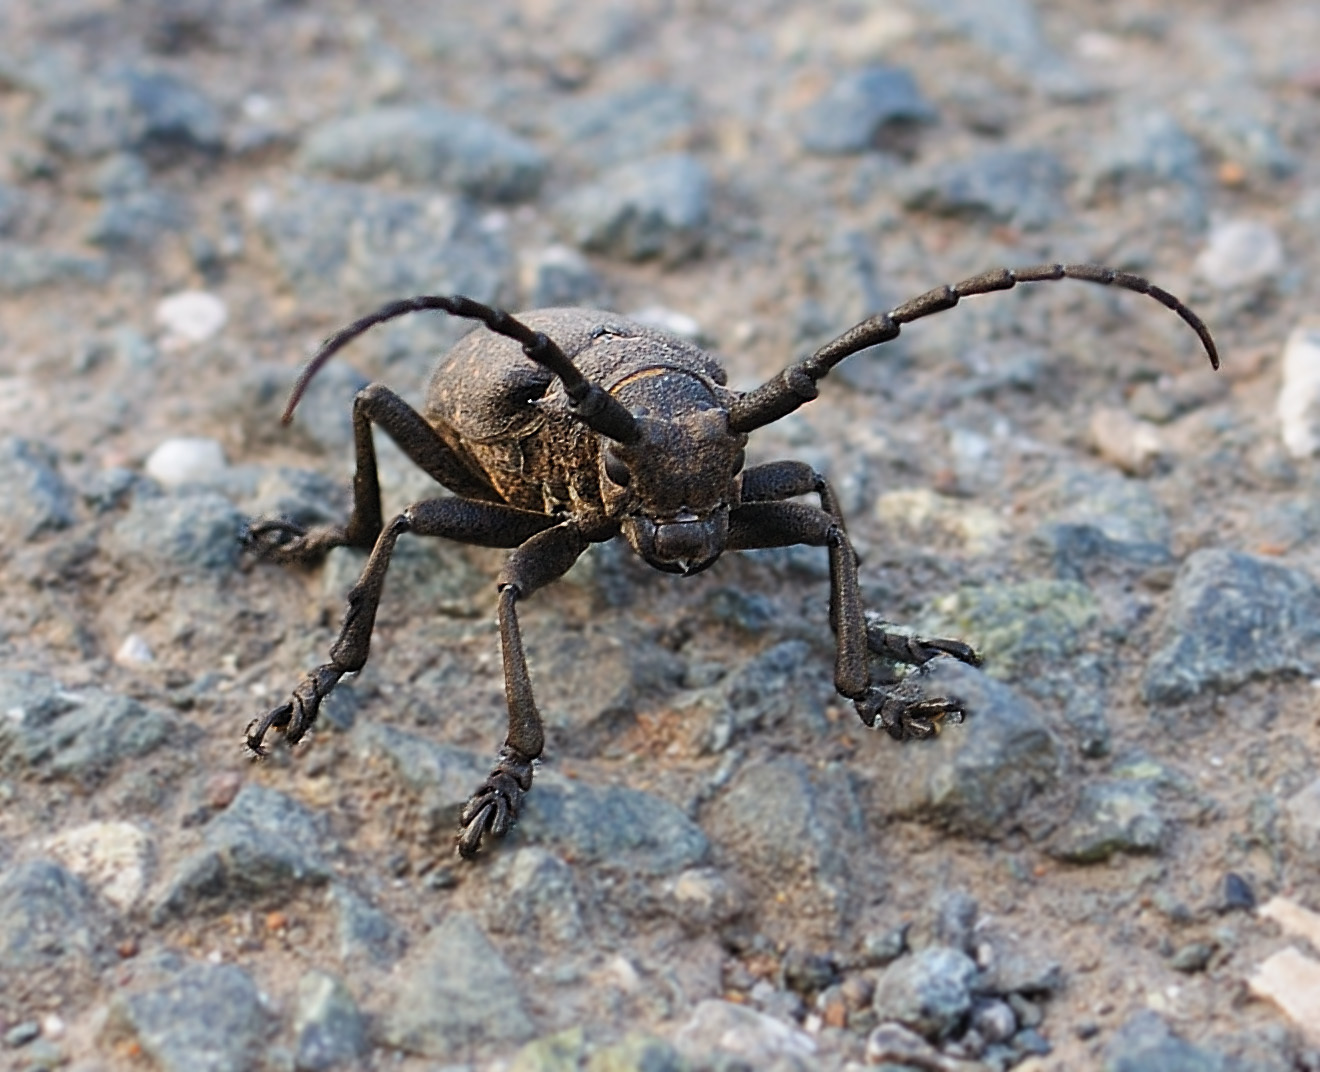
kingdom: Animalia
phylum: Arthropoda
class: Insecta
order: Coleoptera
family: Cerambycidae
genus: Lamia
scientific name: Lamia textor
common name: Weaver beetle
